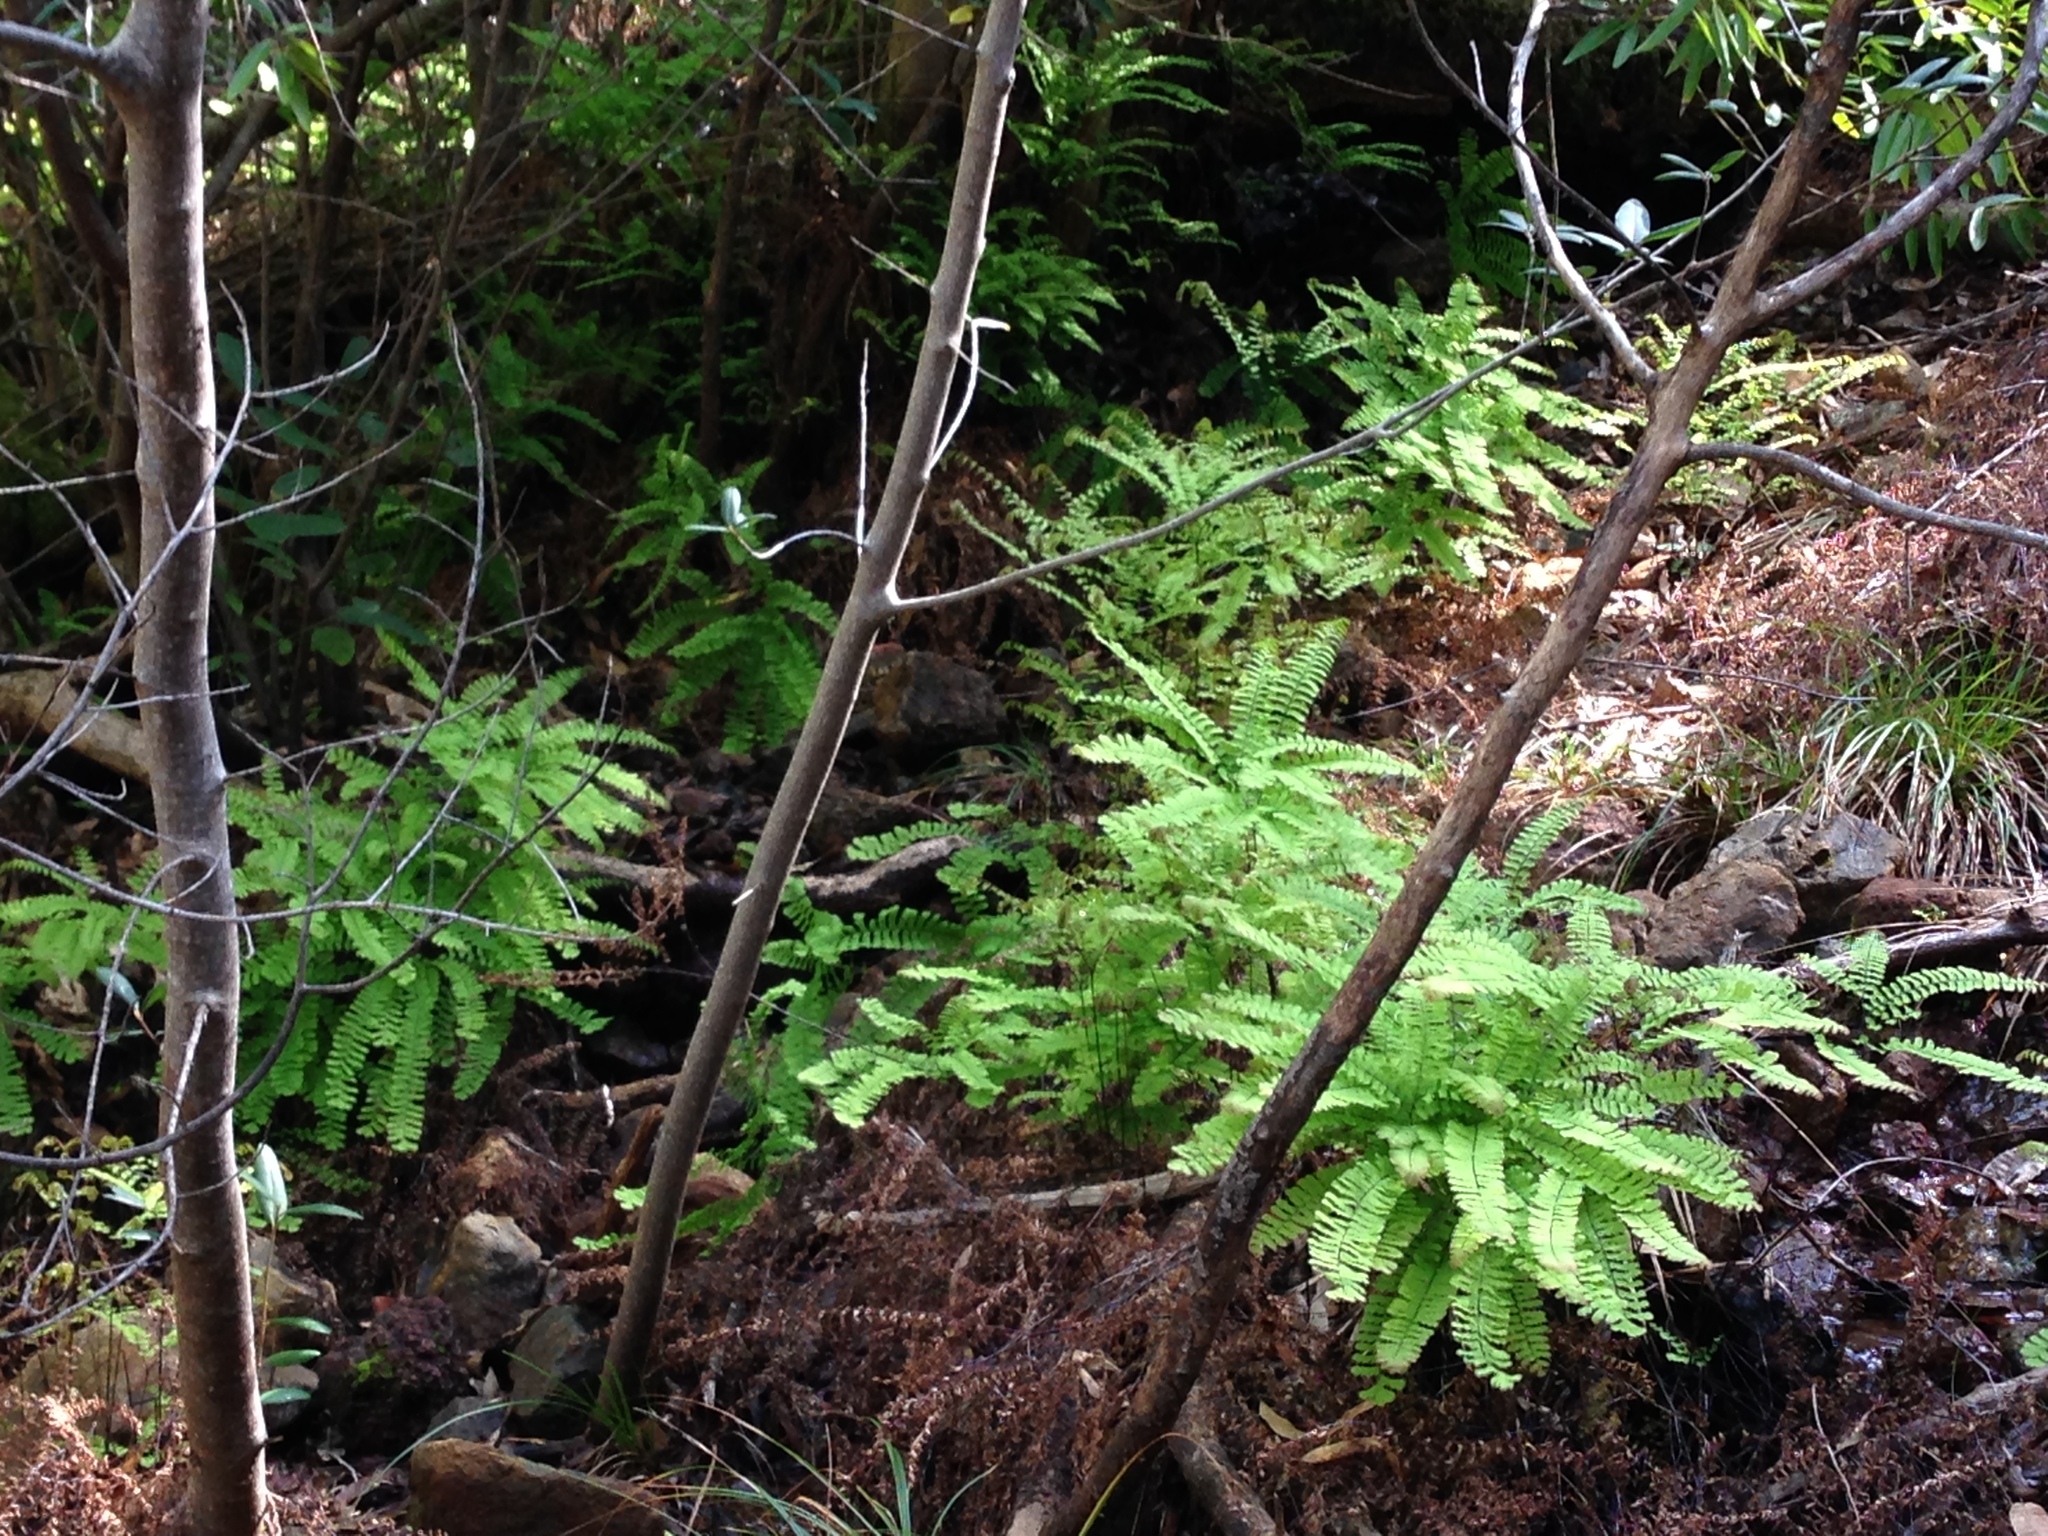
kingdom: Plantae
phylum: Tracheophyta
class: Polypodiopsida
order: Polypodiales
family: Pteridaceae
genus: Adiantum
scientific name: Adiantum aleuticum
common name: Aleutian maidenhair fern
